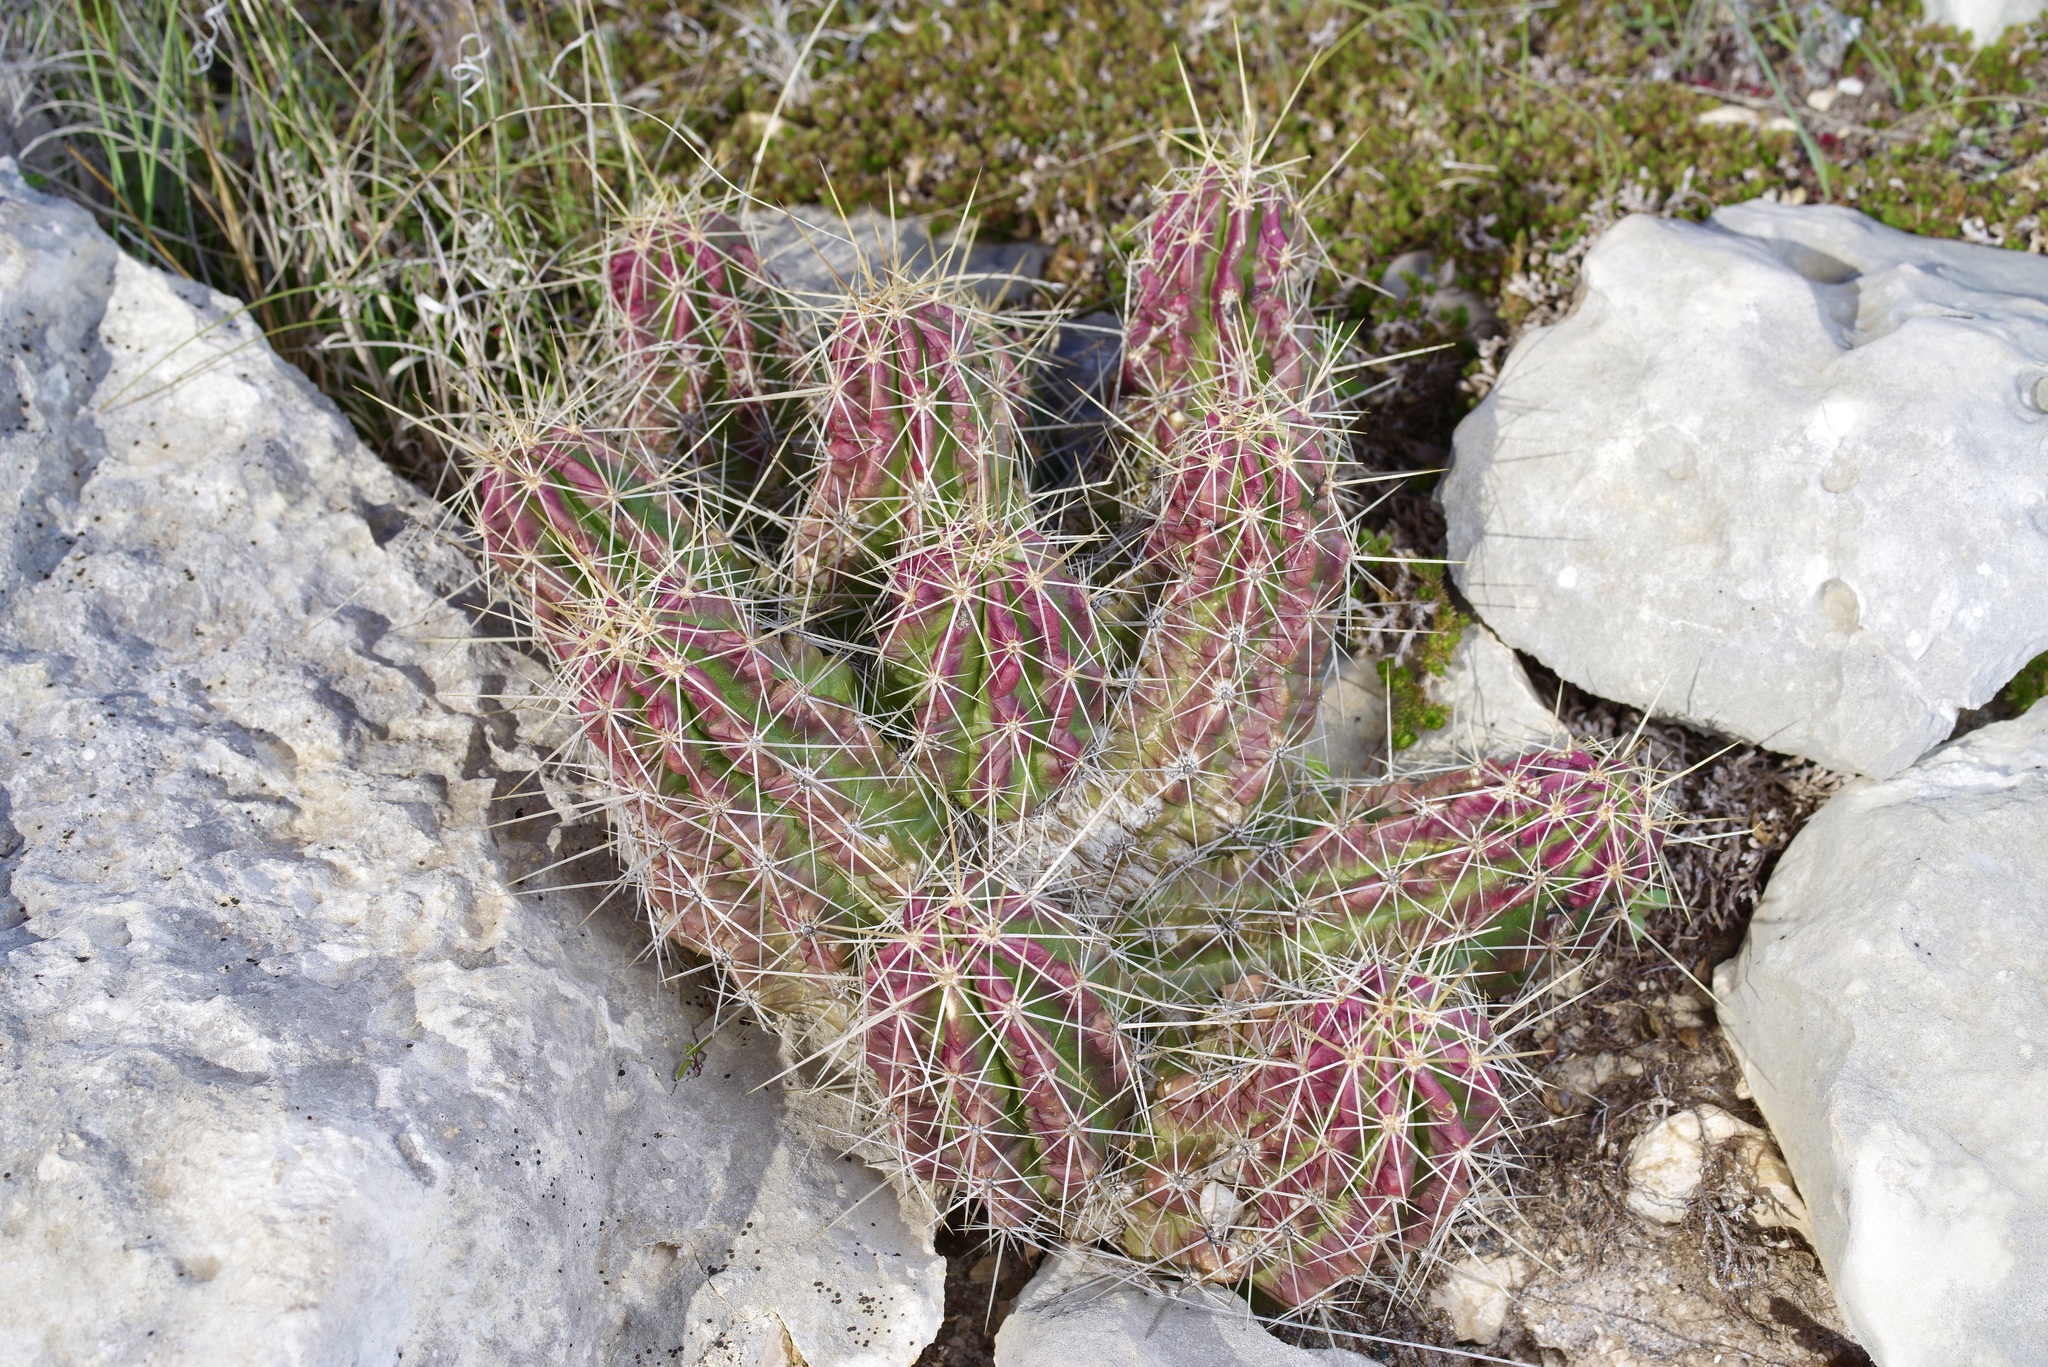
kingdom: Plantae
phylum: Tracheophyta
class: Magnoliopsida
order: Caryophyllales
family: Cactaceae
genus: Echinocereus
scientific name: Echinocereus enneacanthus
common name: Pitaya
